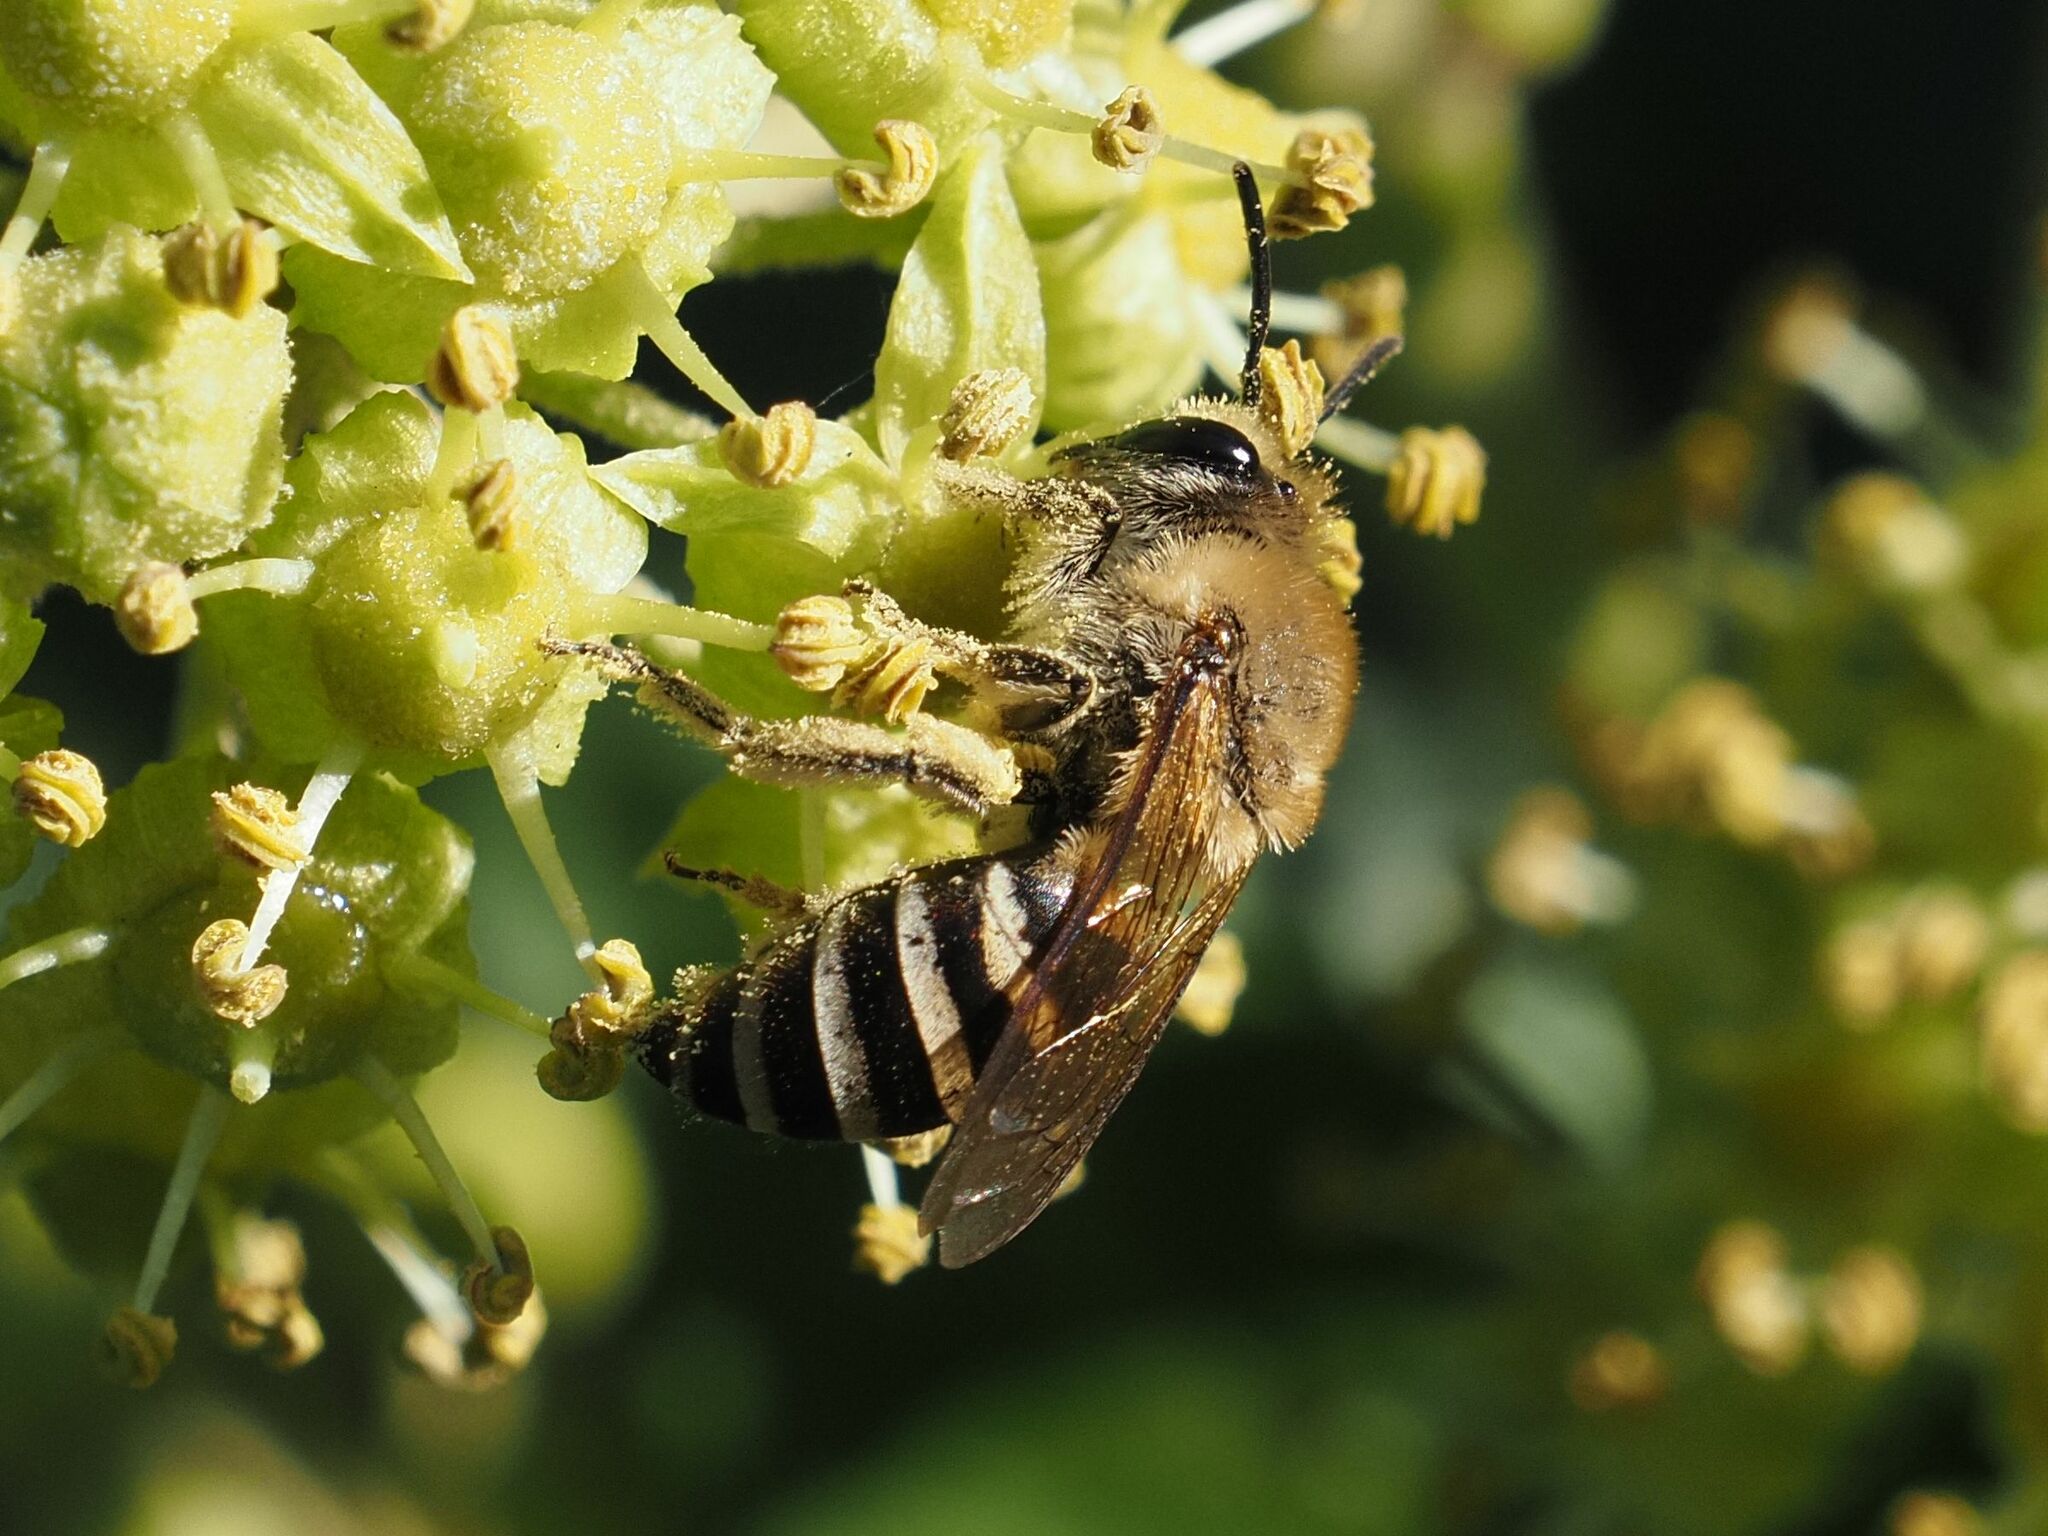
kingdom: Animalia
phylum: Arthropoda
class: Insecta
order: Hymenoptera
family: Colletidae
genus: Colletes
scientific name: Colletes hederae
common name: Ivy bee
